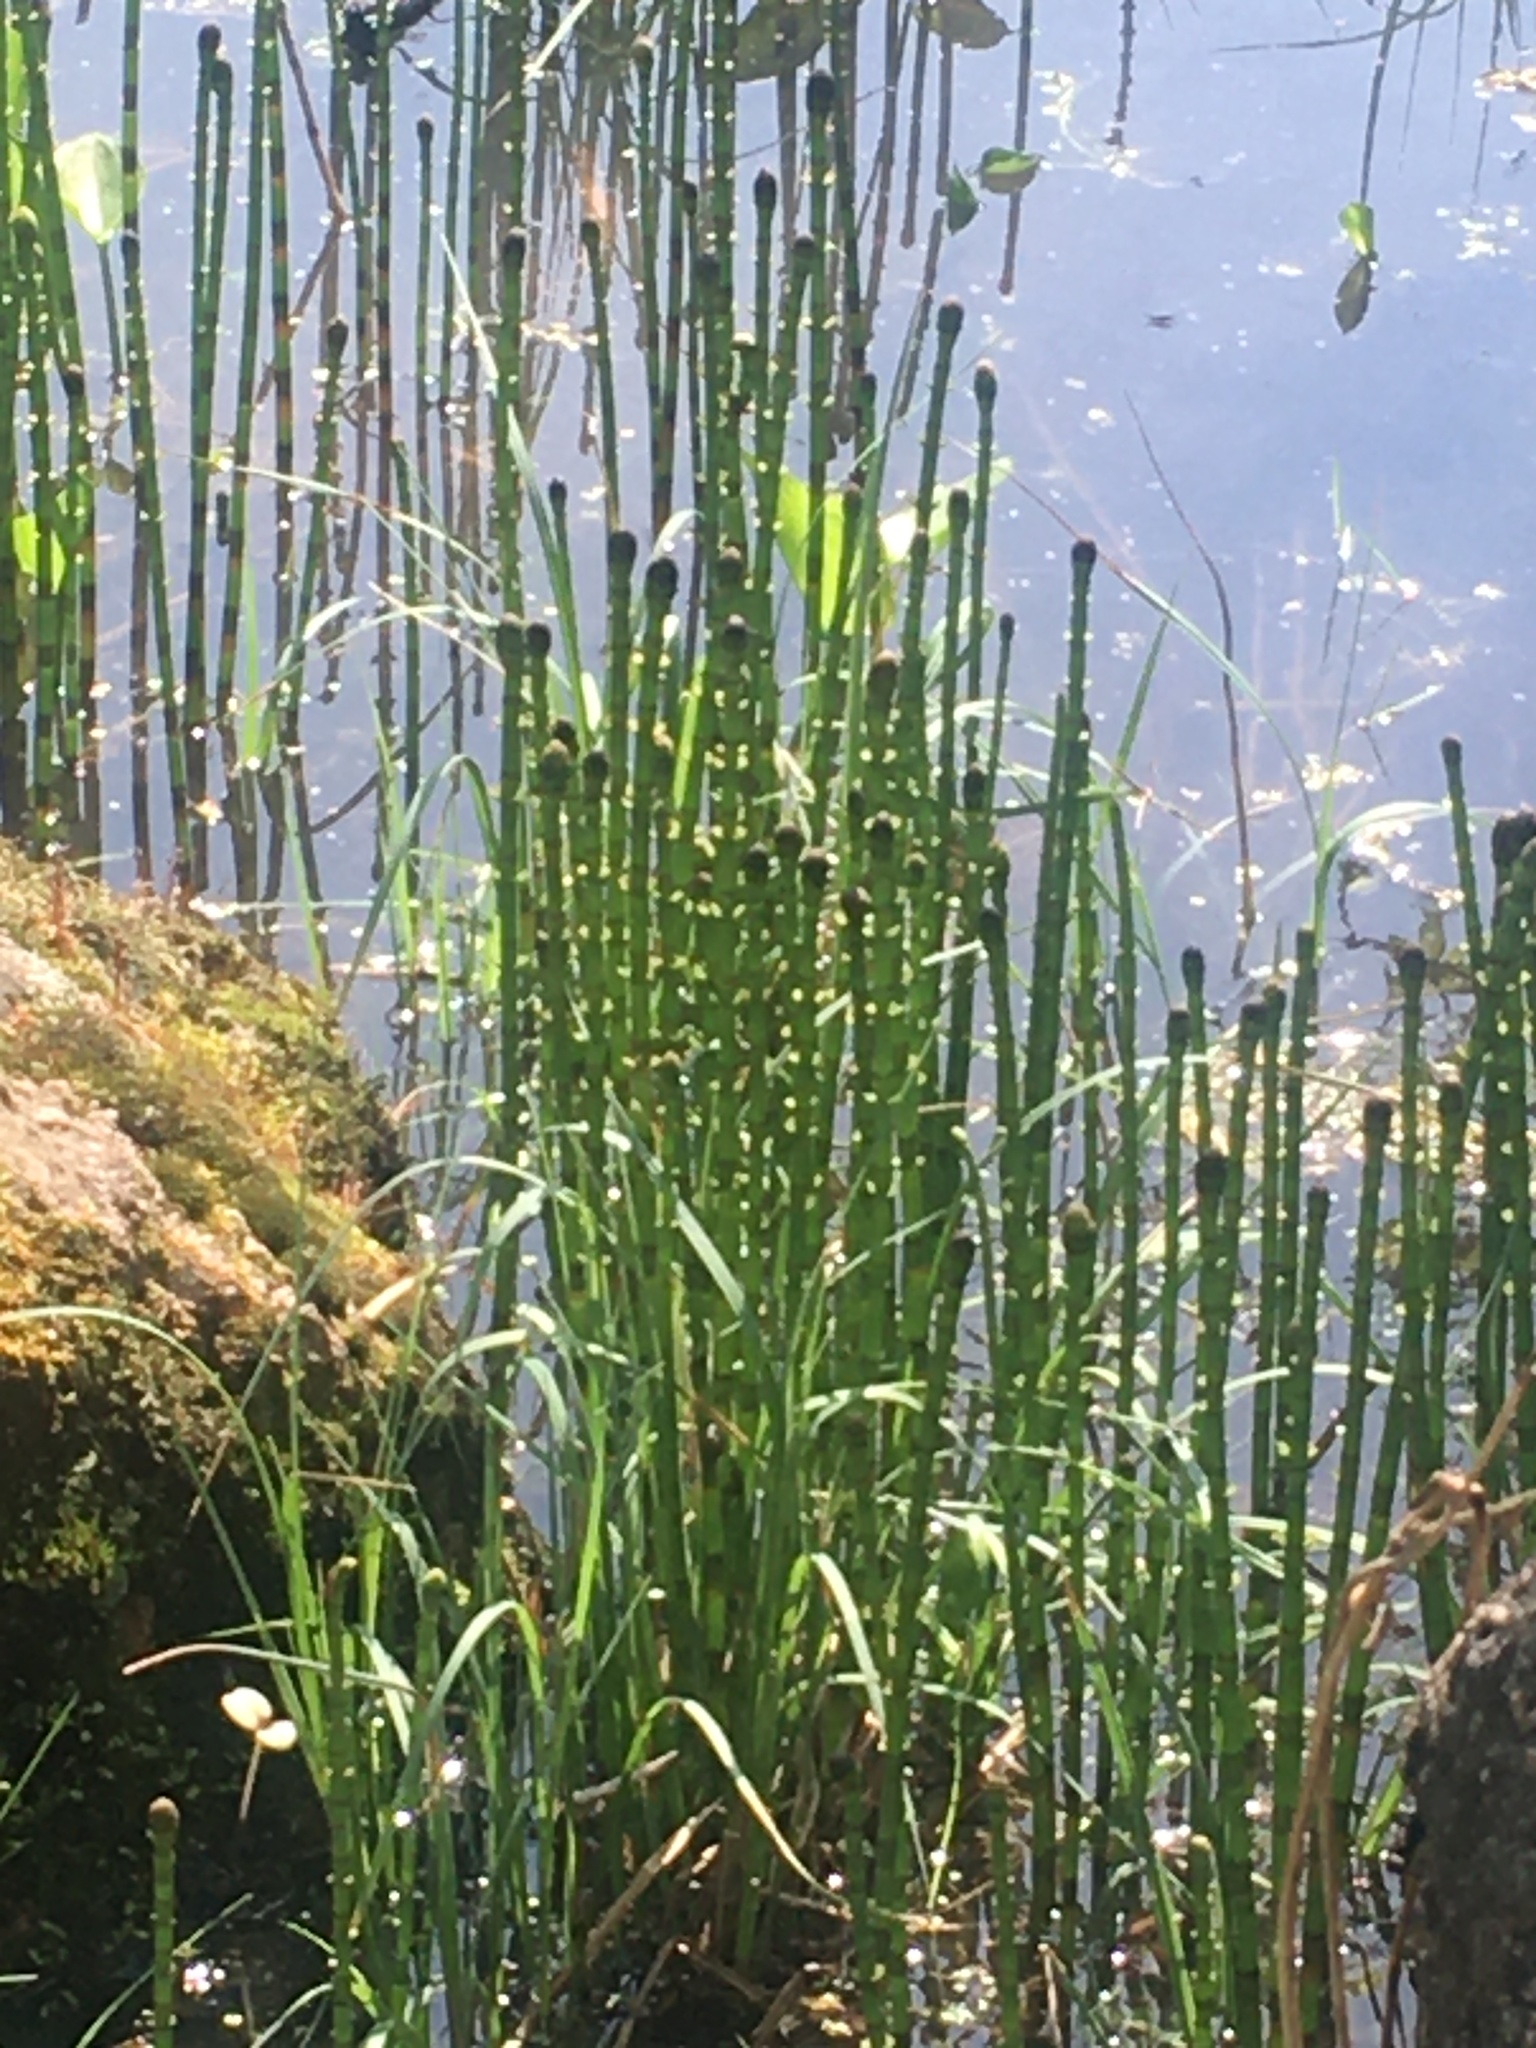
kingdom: Plantae
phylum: Tracheophyta
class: Polypodiopsida
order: Equisetales
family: Equisetaceae
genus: Equisetum
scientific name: Equisetum fluviatile
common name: Water horsetail
